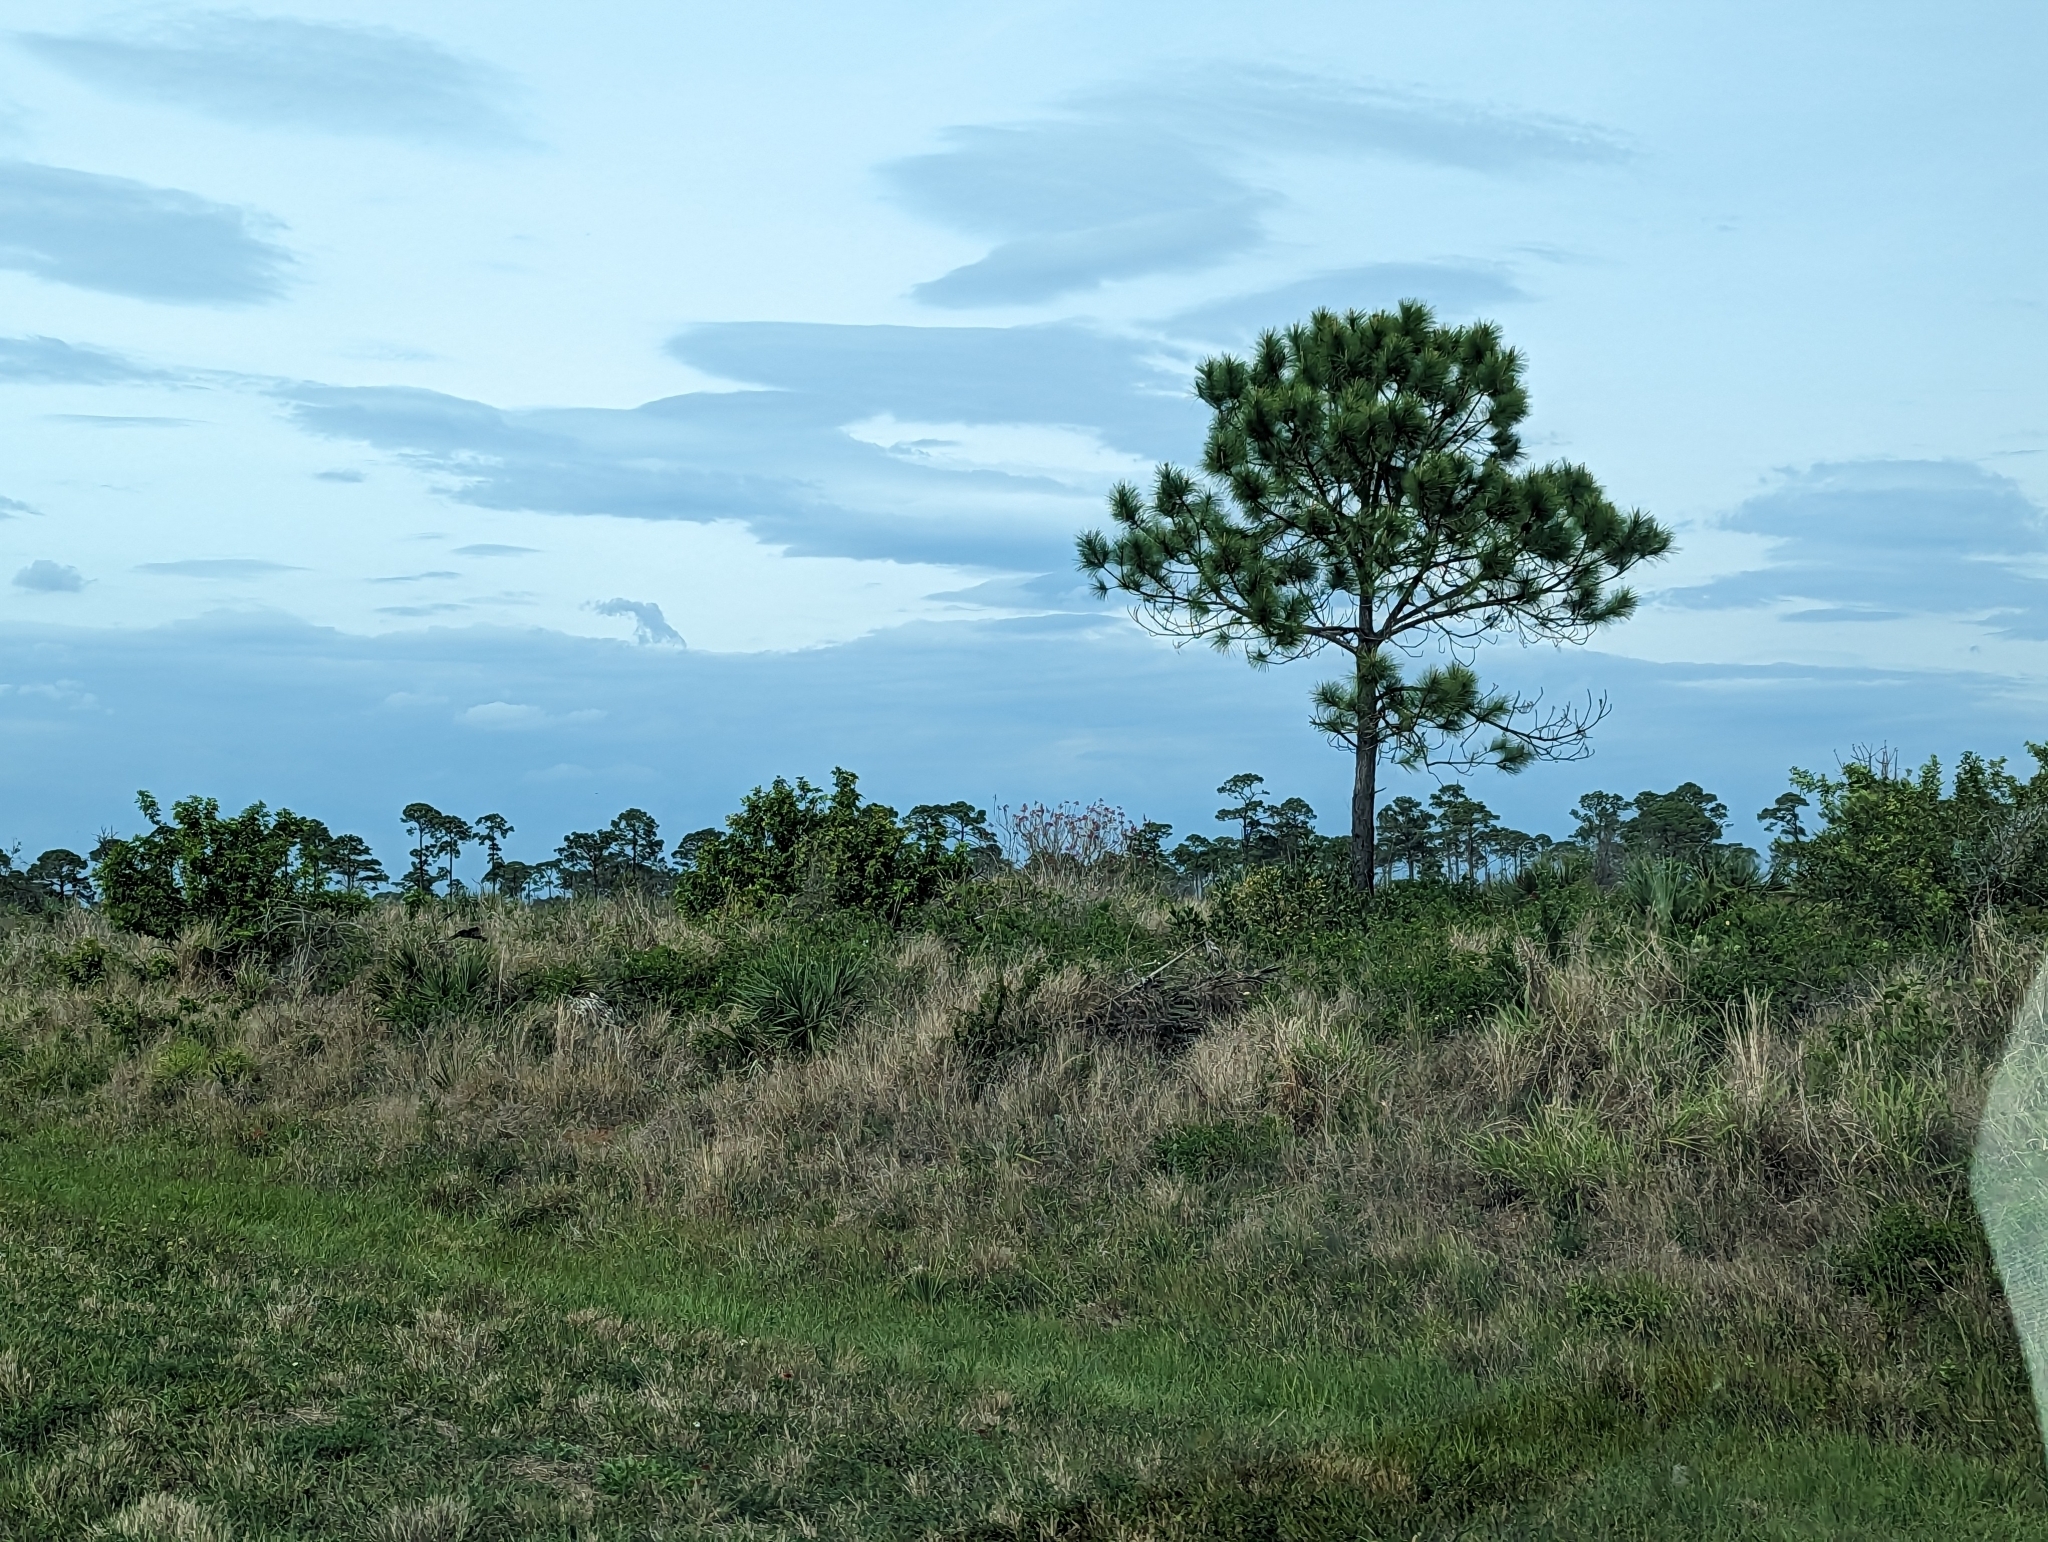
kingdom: Plantae
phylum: Tracheophyta
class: Pinopsida
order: Pinales
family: Pinaceae
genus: Pinus
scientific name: Pinus elliottii
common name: Slash pine
